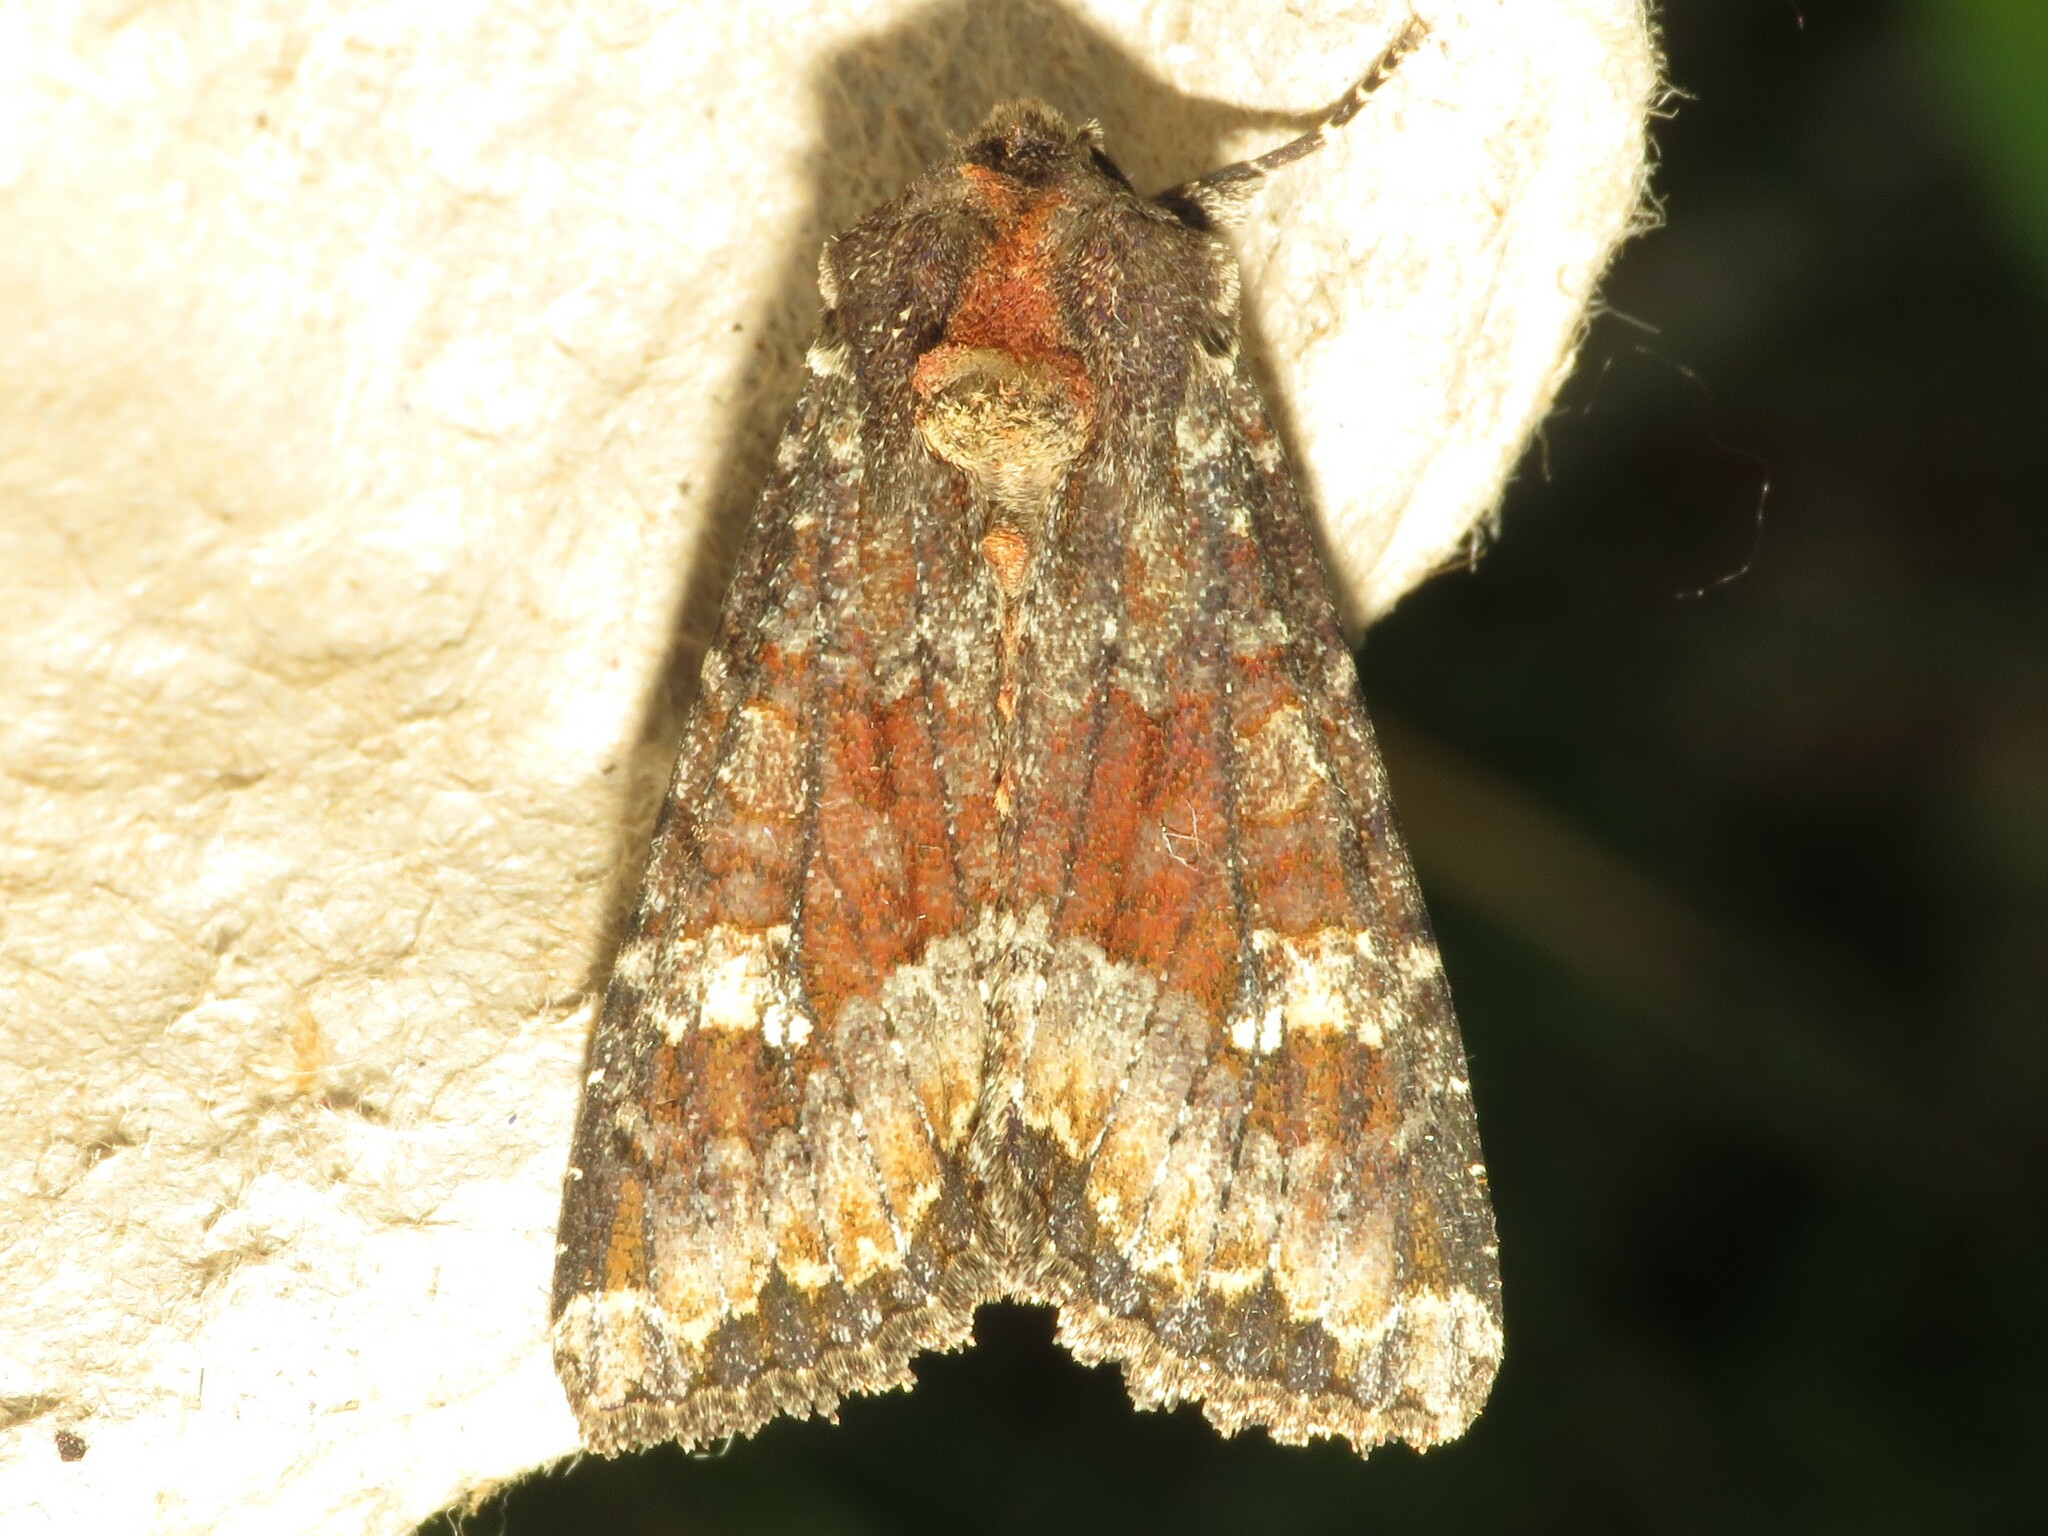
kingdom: Animalia
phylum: Arthropoda
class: Insecta
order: Lepidoptera
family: Noctuidae
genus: Apamea
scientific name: Apamea amputatrix
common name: Yellow-headed cutworm moth
